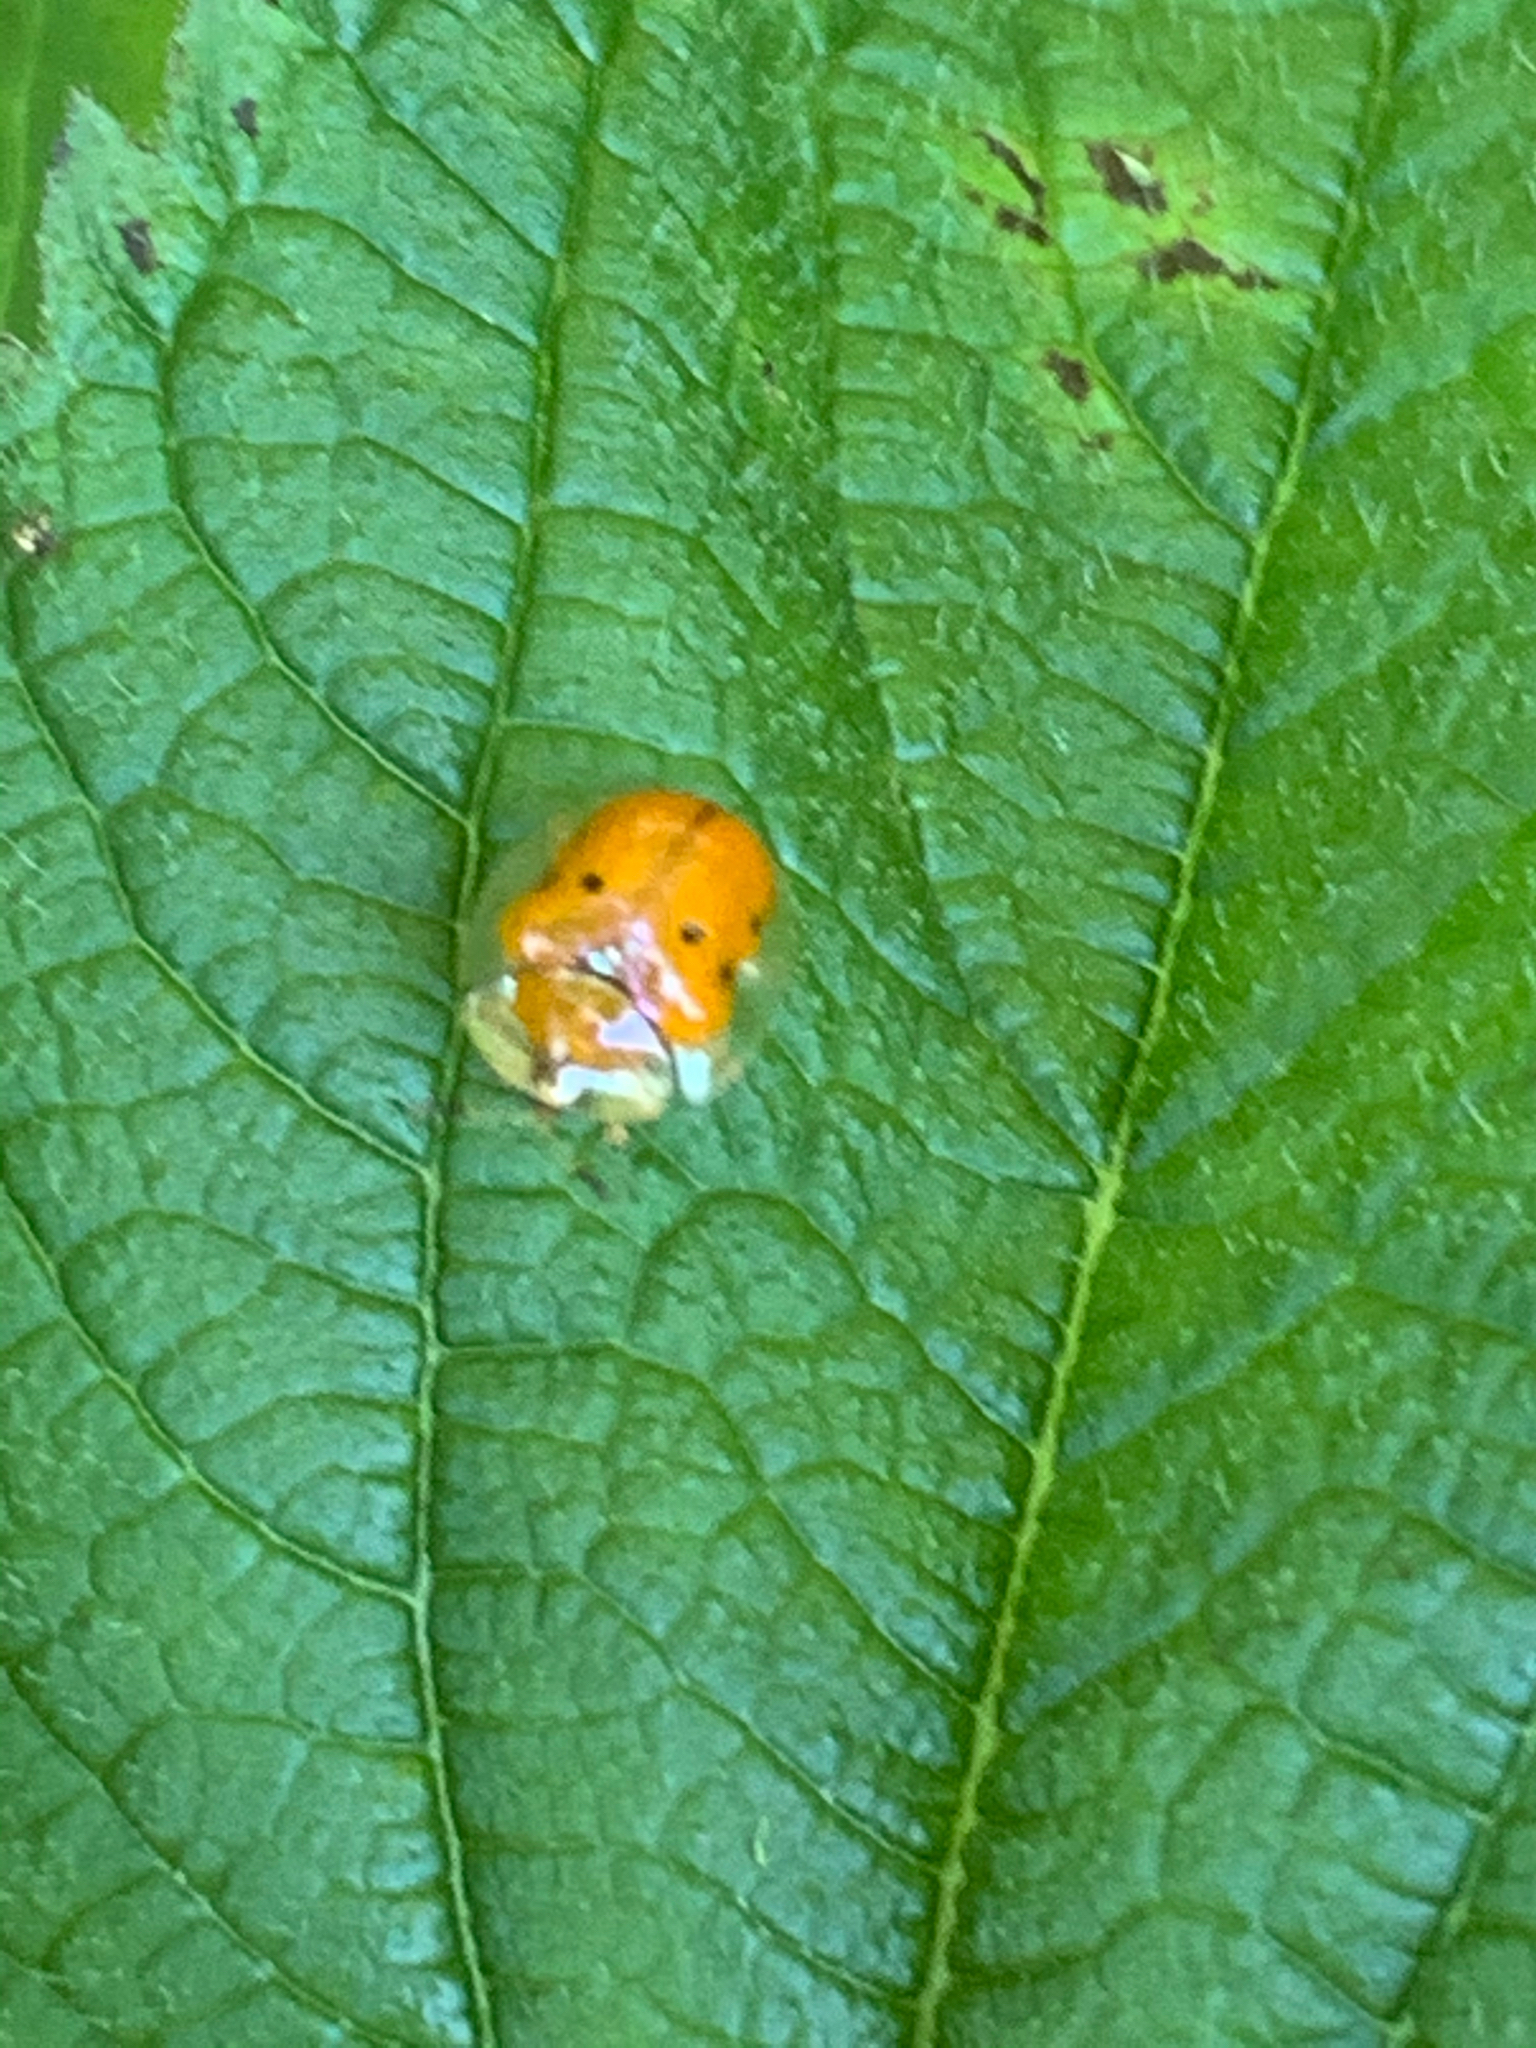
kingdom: Animalia
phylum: Arthropoda
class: Insecta
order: Coleoptera
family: Chrysomelidae
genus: Charidotella
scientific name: Charidotella sexpunctata
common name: Golden tortoise beetle
